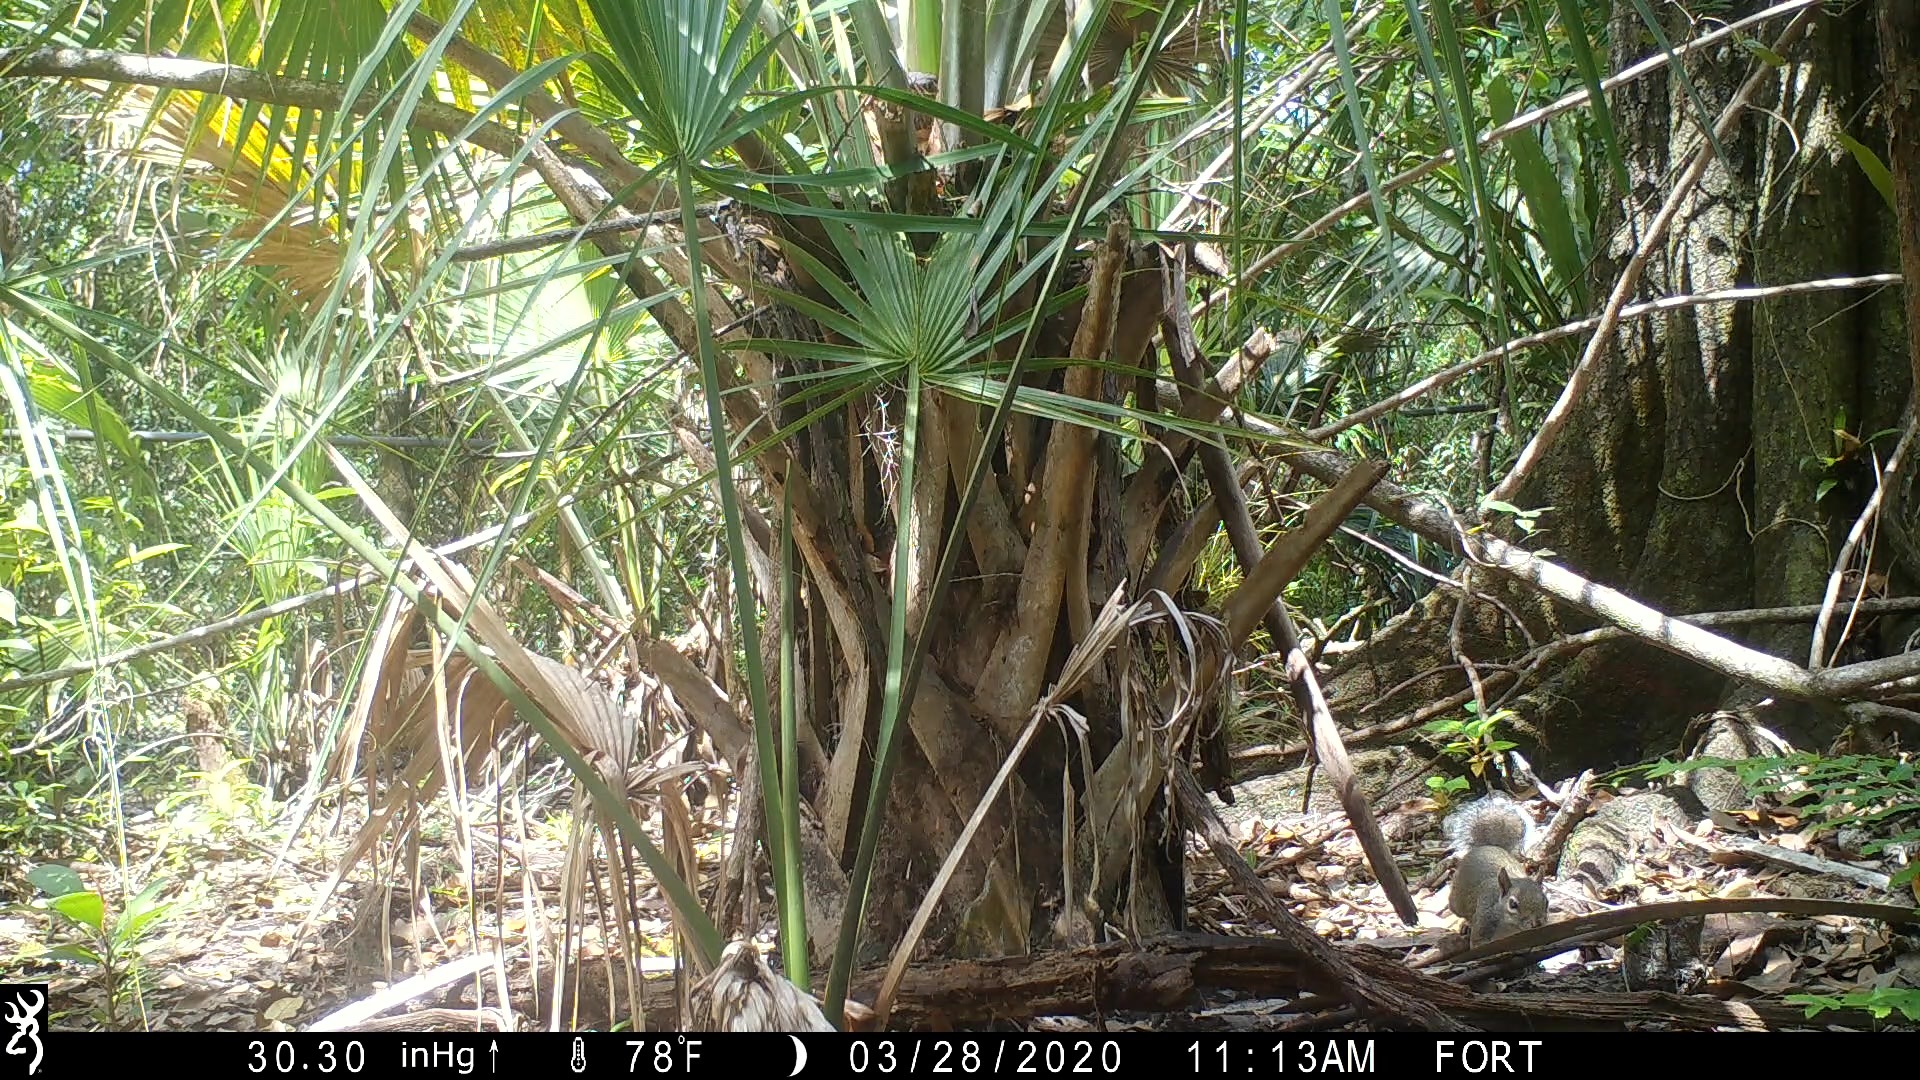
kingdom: Animalia
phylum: Chordata
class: Mammalia
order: Rodentia
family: Sciuridae
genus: Sciurus
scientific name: Sciurus carolinensis
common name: Eastern gray squirrel
